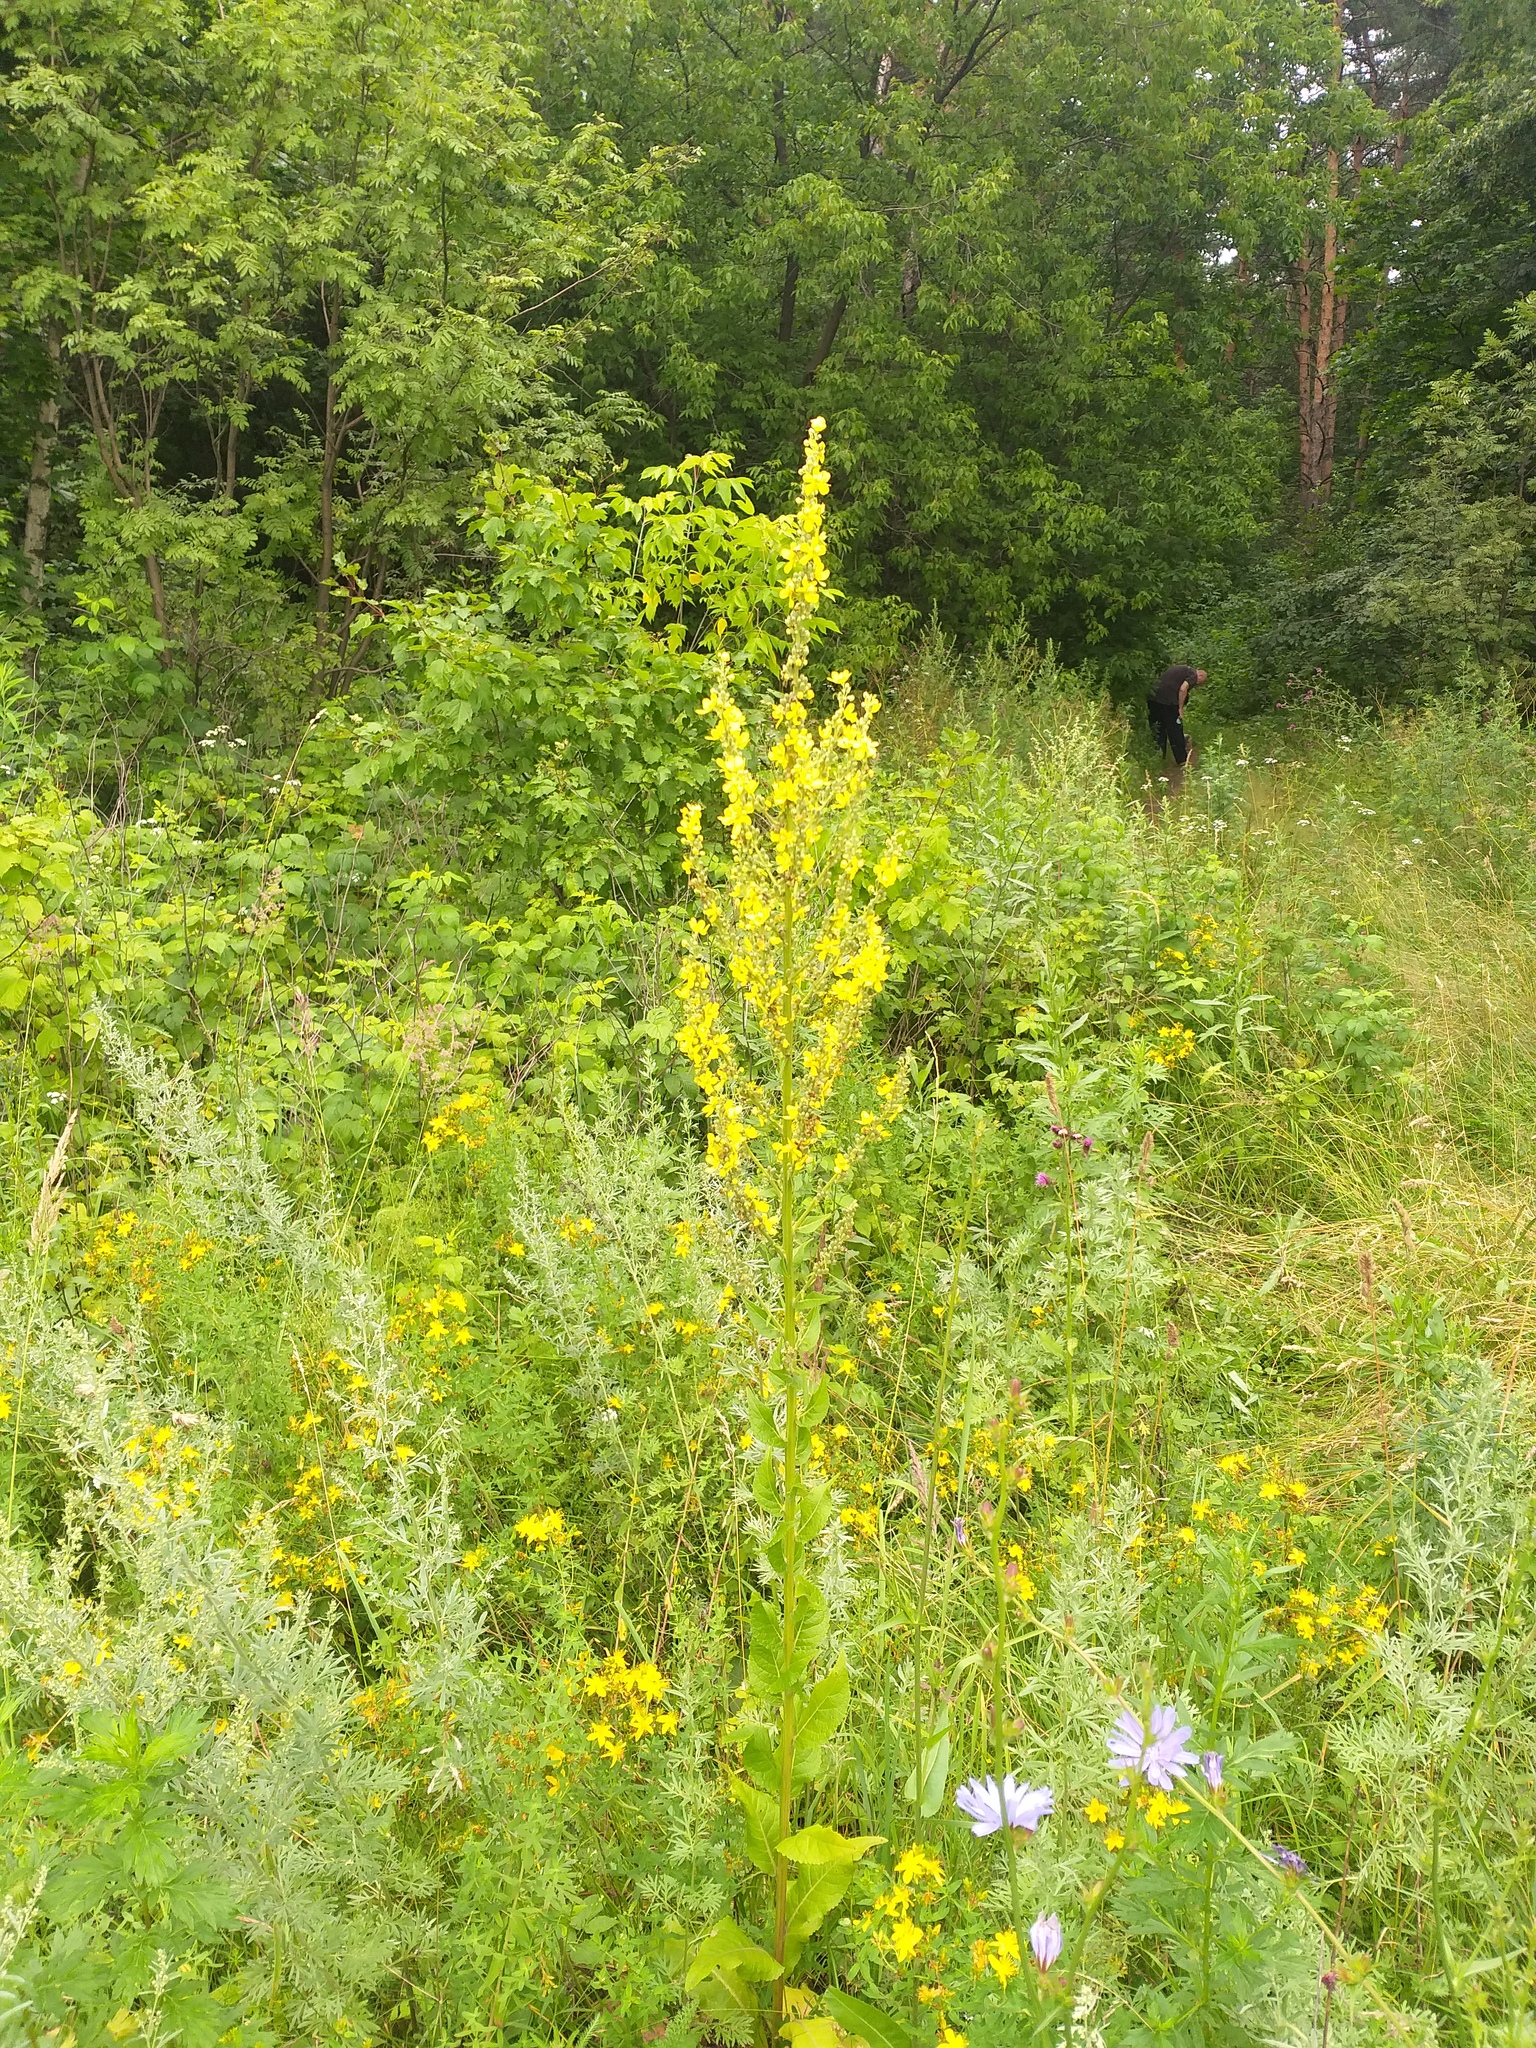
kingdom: Plantae
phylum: Tracheophyta
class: Magnoliopsida
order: Lamiales
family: Scrophulariaceae
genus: Verbascum
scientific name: Verbascum lychnitis
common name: White mullein
